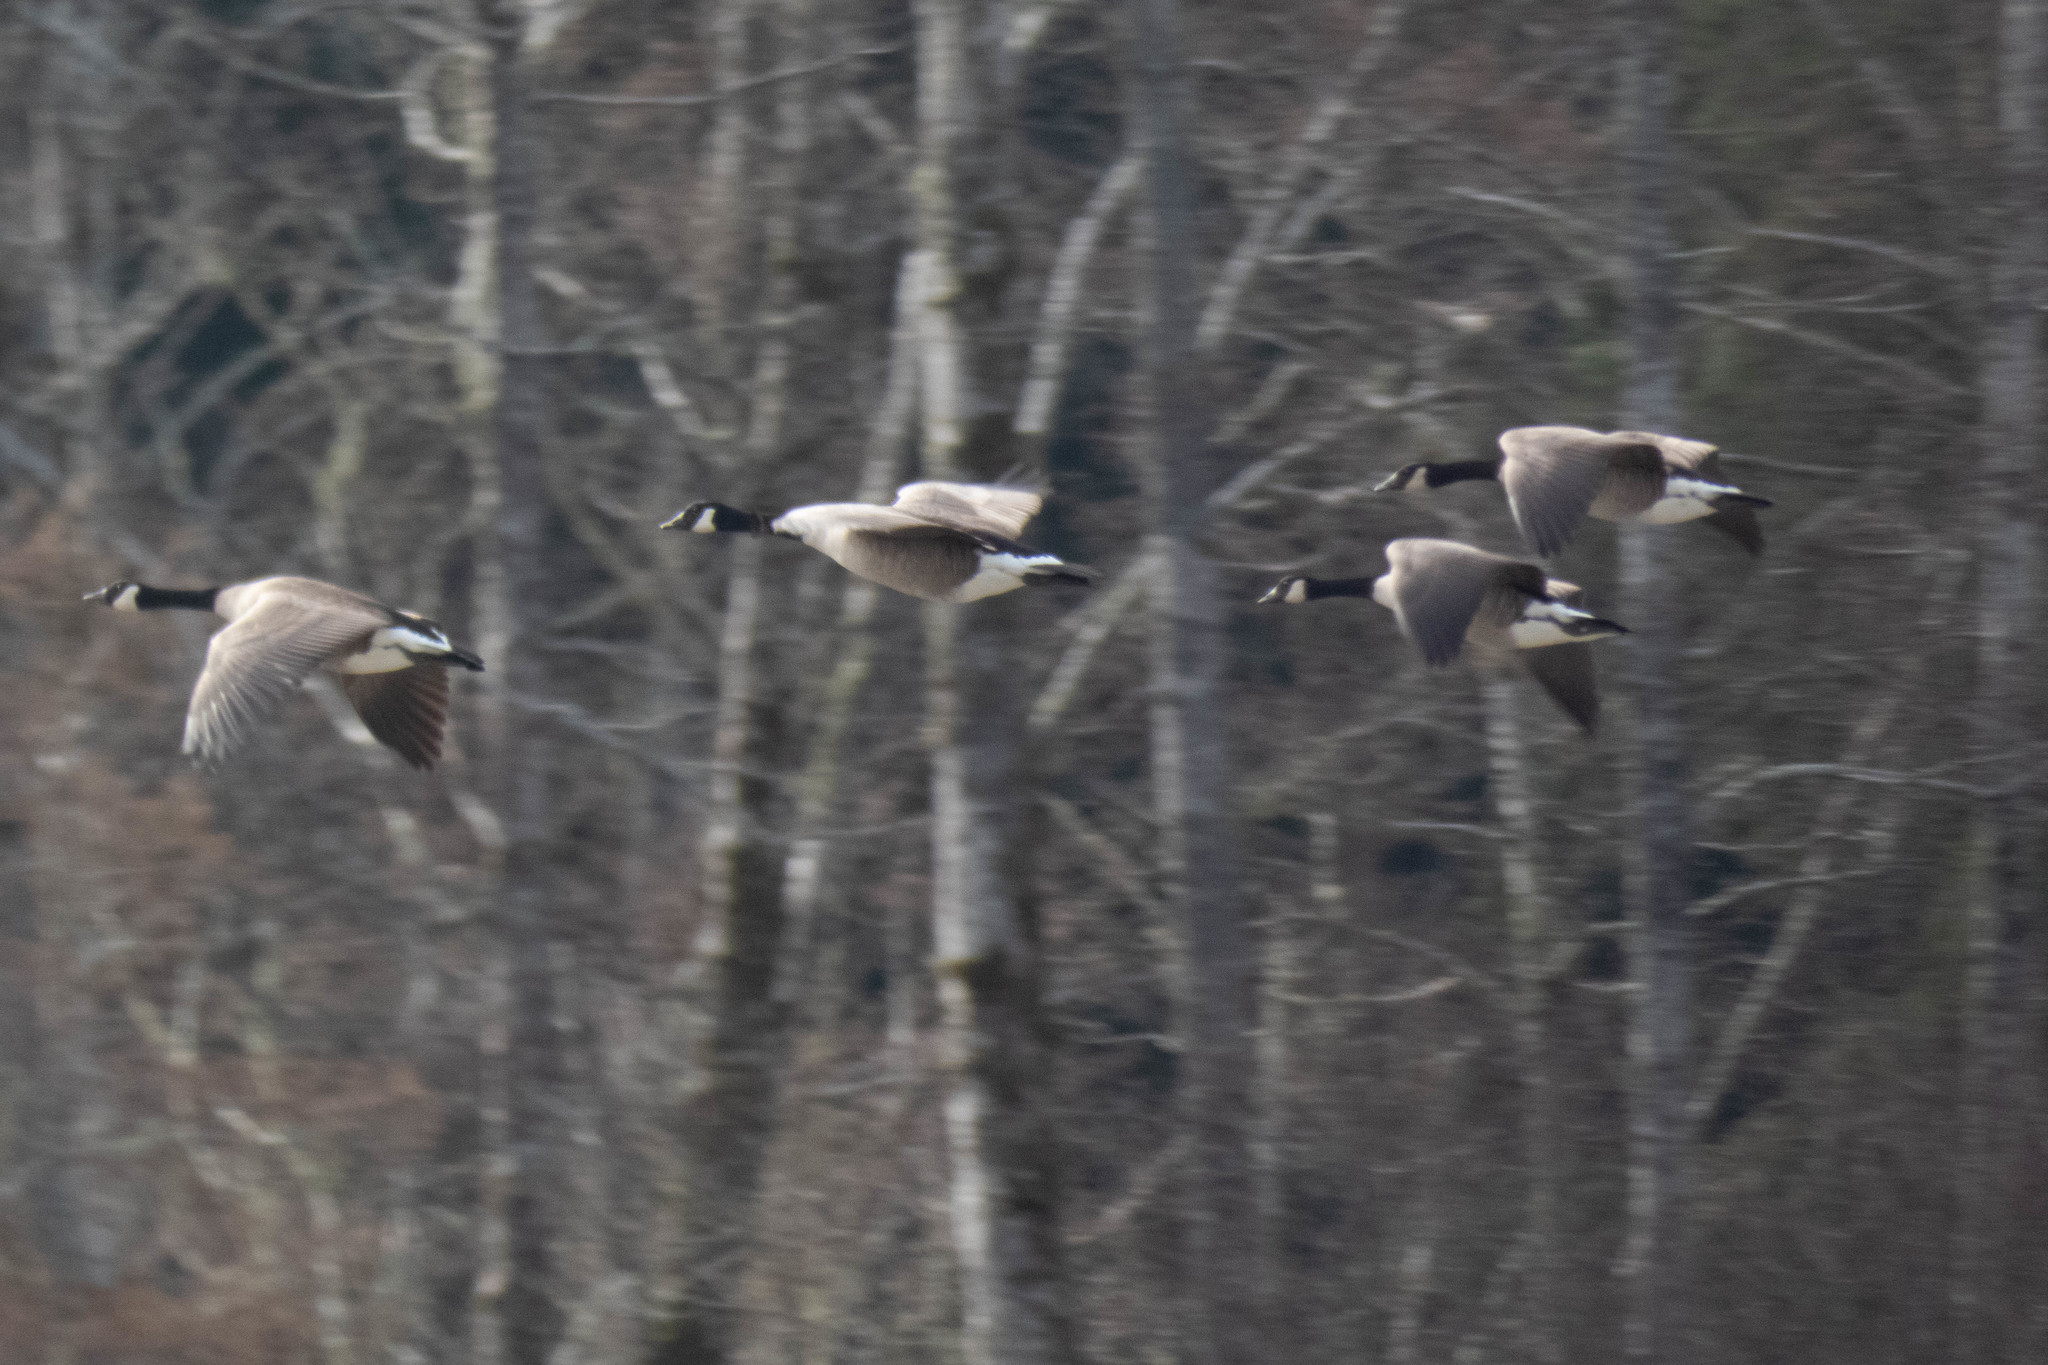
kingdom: Animalia
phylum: Chordata
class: Aves
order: Anseriformes
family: Anatidae
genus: Branta
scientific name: Branta canadensis
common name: Canada goose
